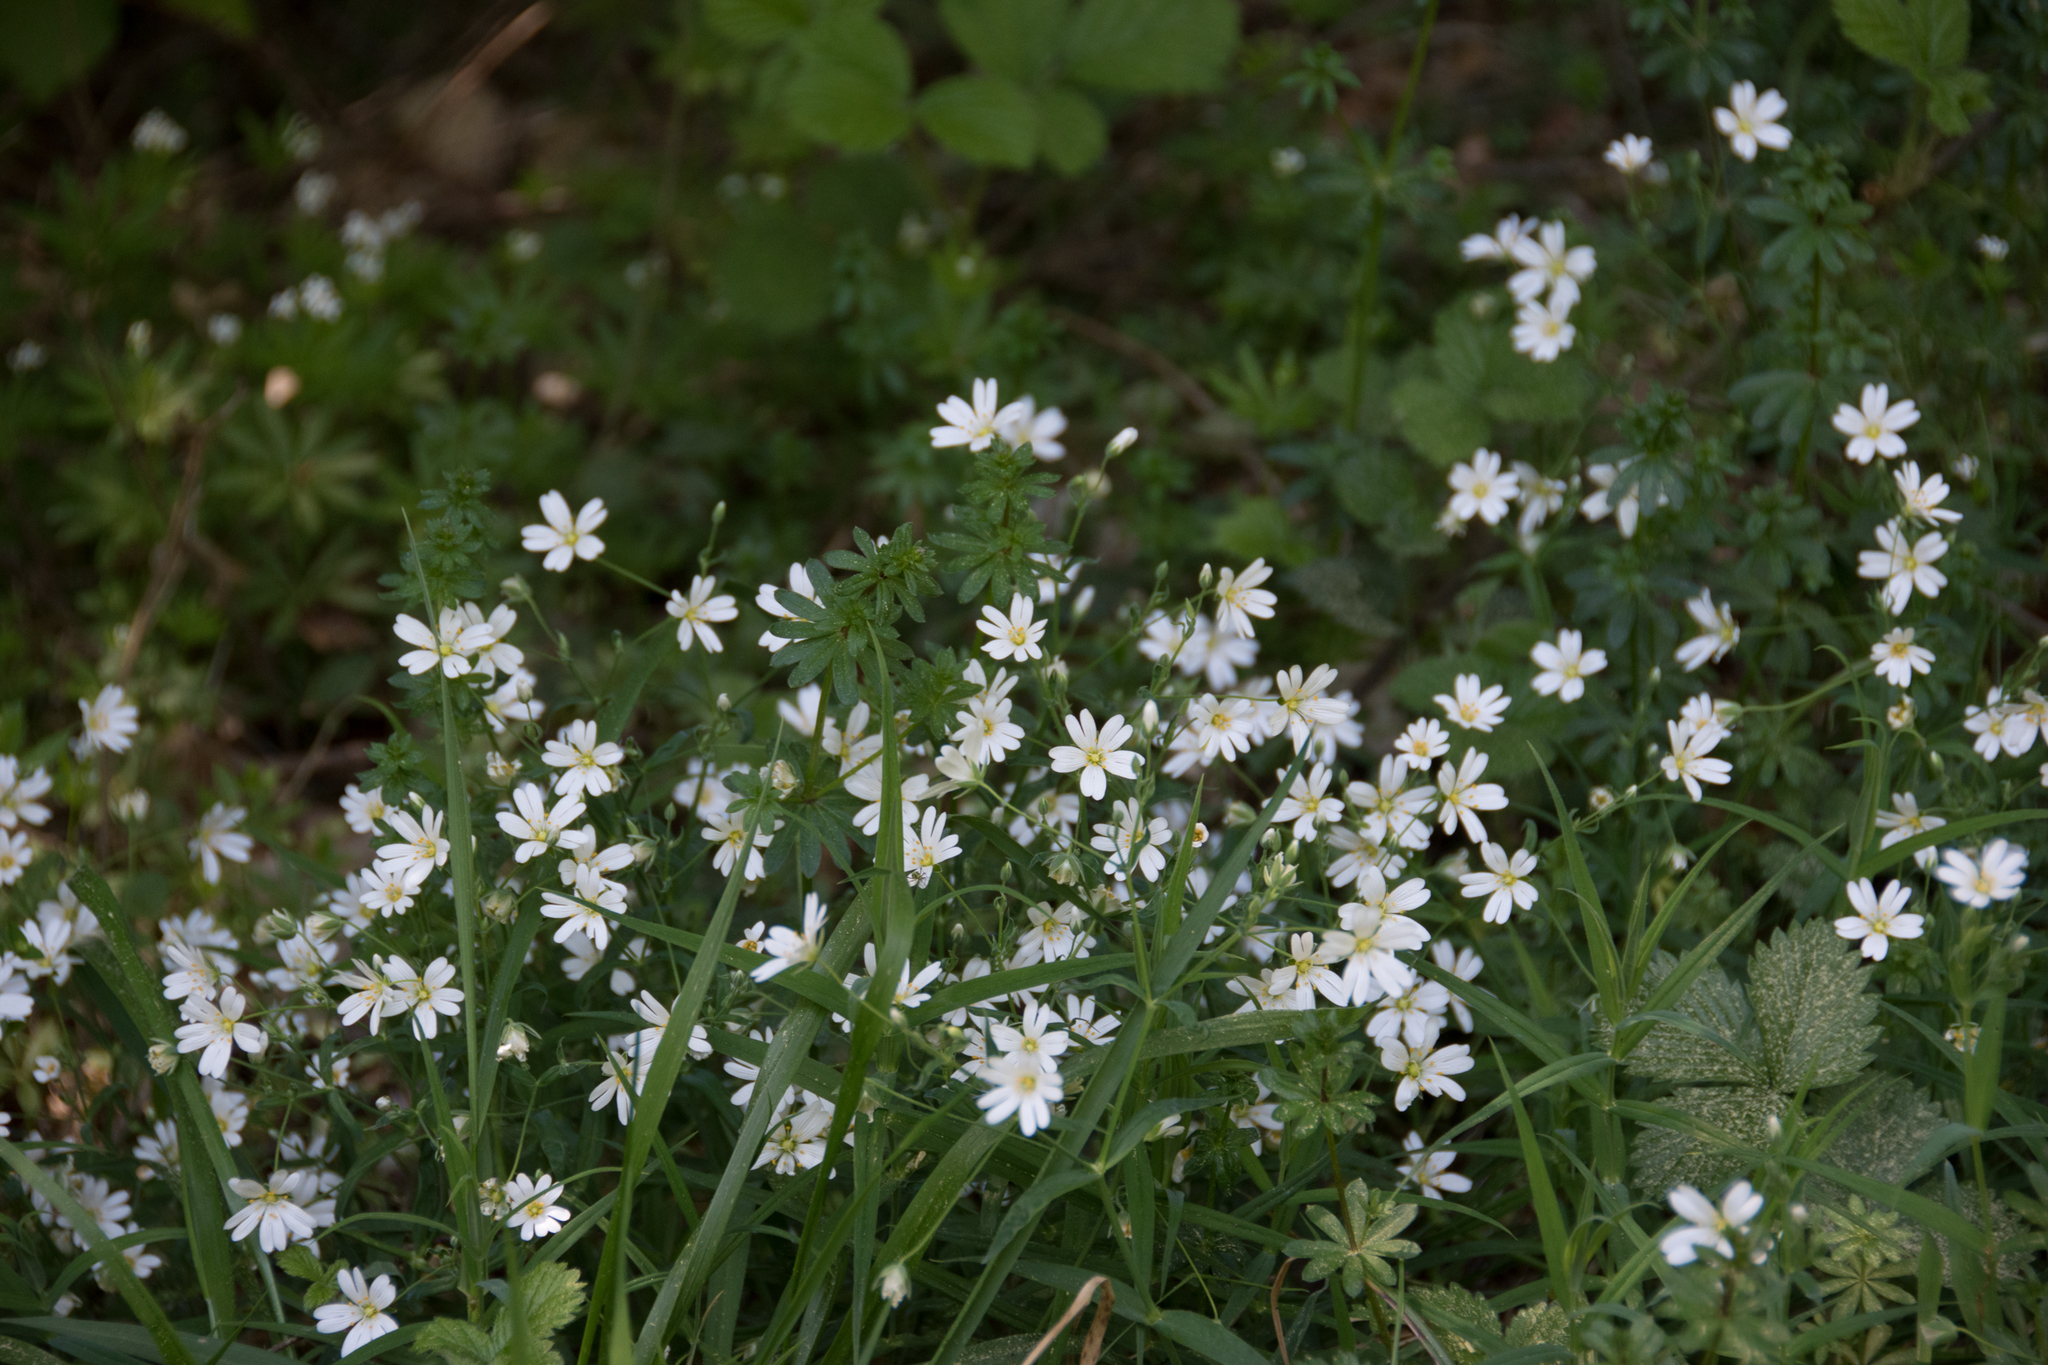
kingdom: Plantae
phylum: Tracheophyta
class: Magnoliopsida
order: Caryophyllales
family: Caryophyllaceae
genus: Rabelera
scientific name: Rabelera holostea
